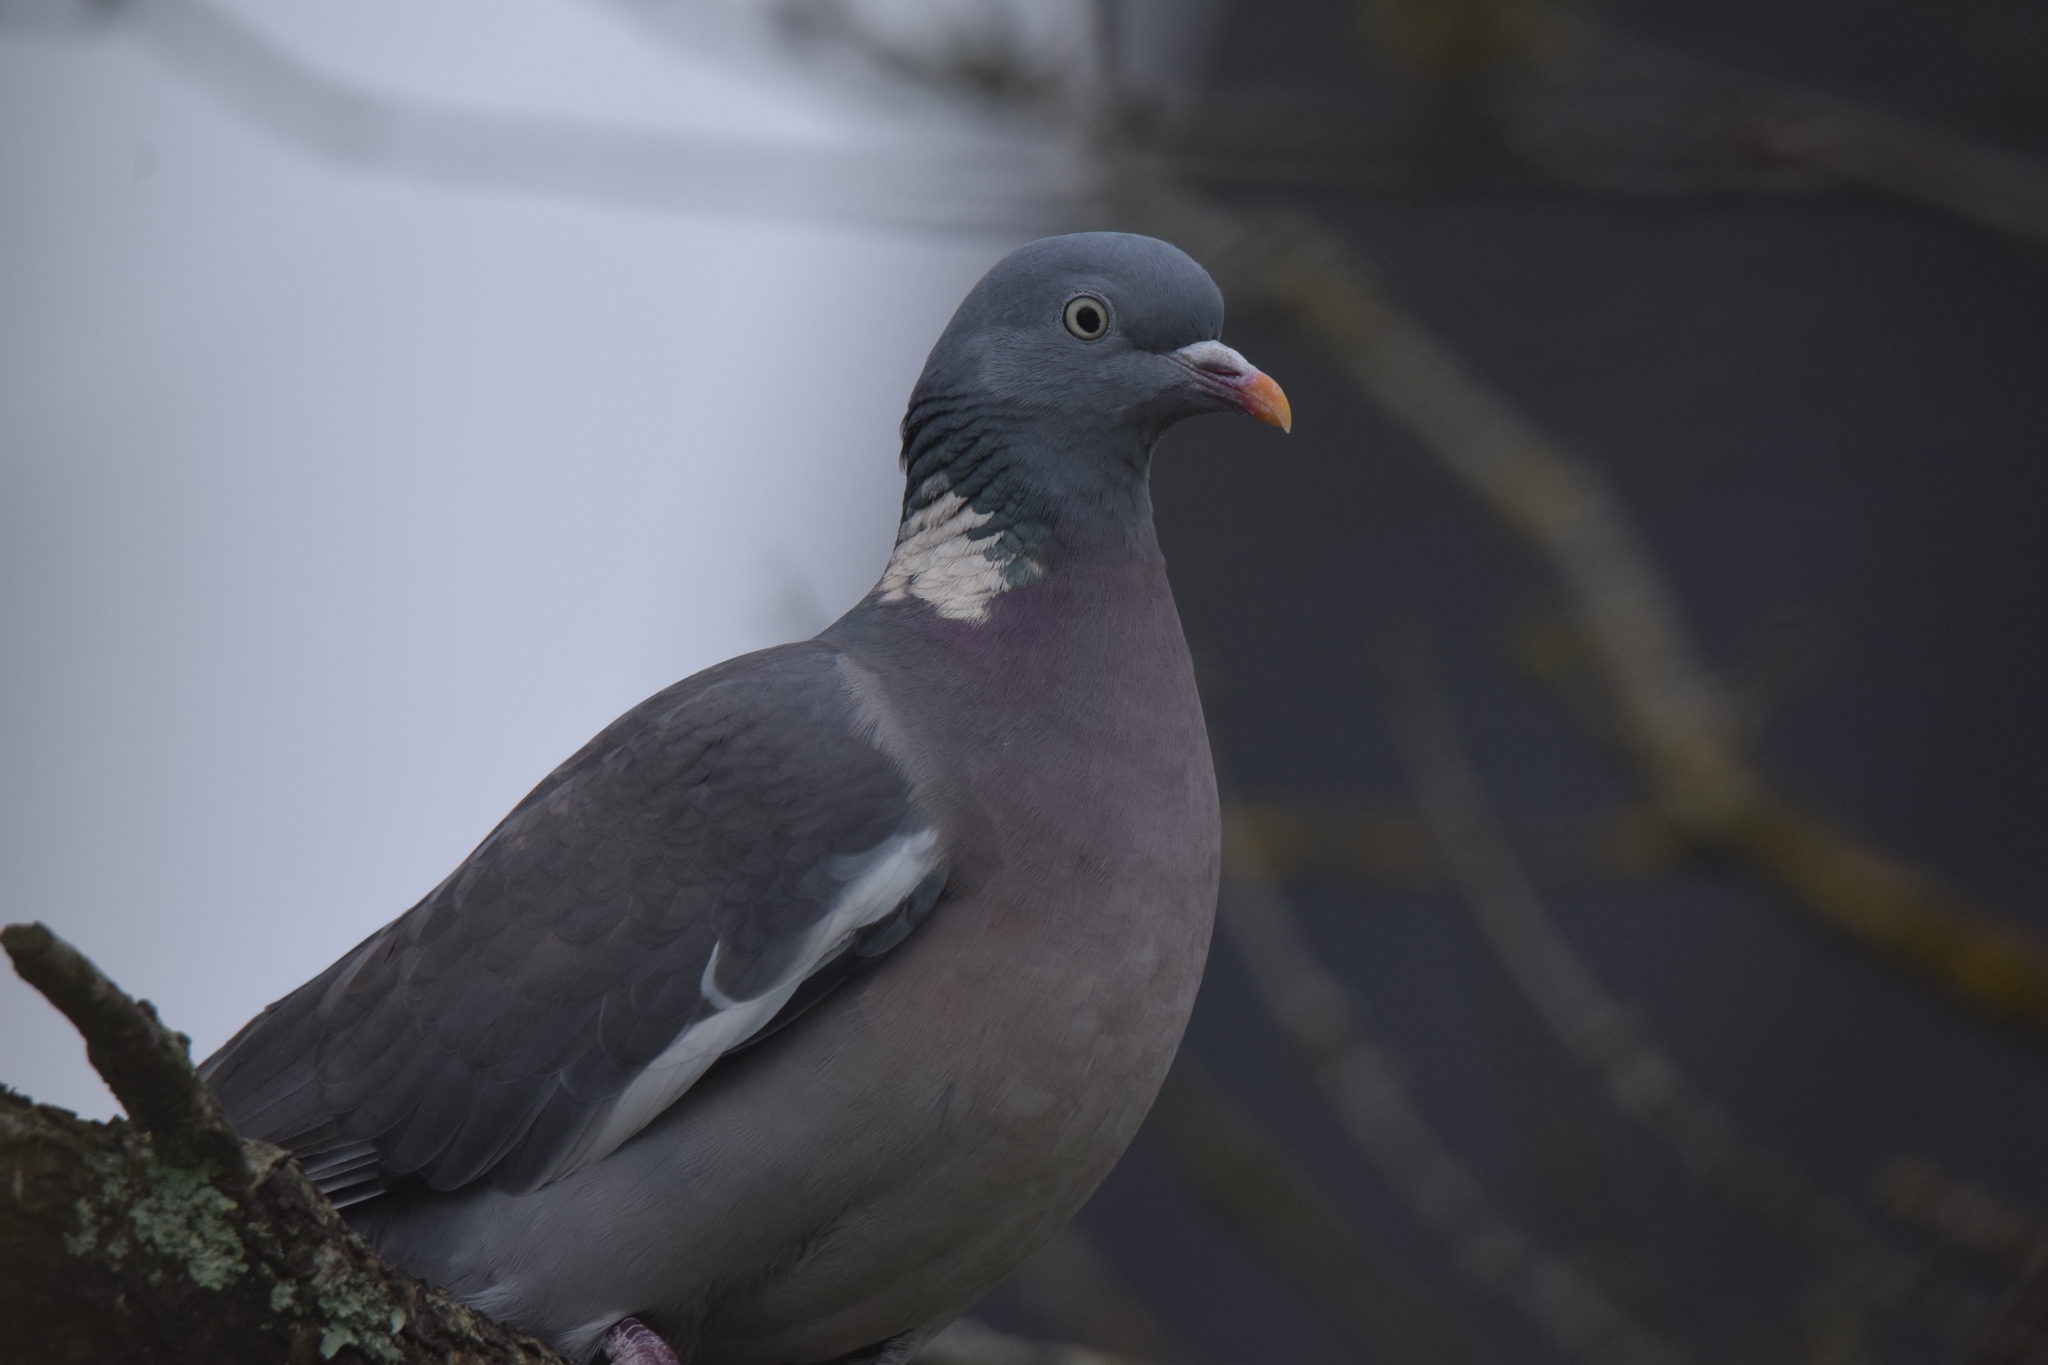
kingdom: Animalia
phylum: Chordata
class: Aves
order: Columbiformes
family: Columbidae
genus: Columba
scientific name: Columba palumbus
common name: Common wood pigeon
